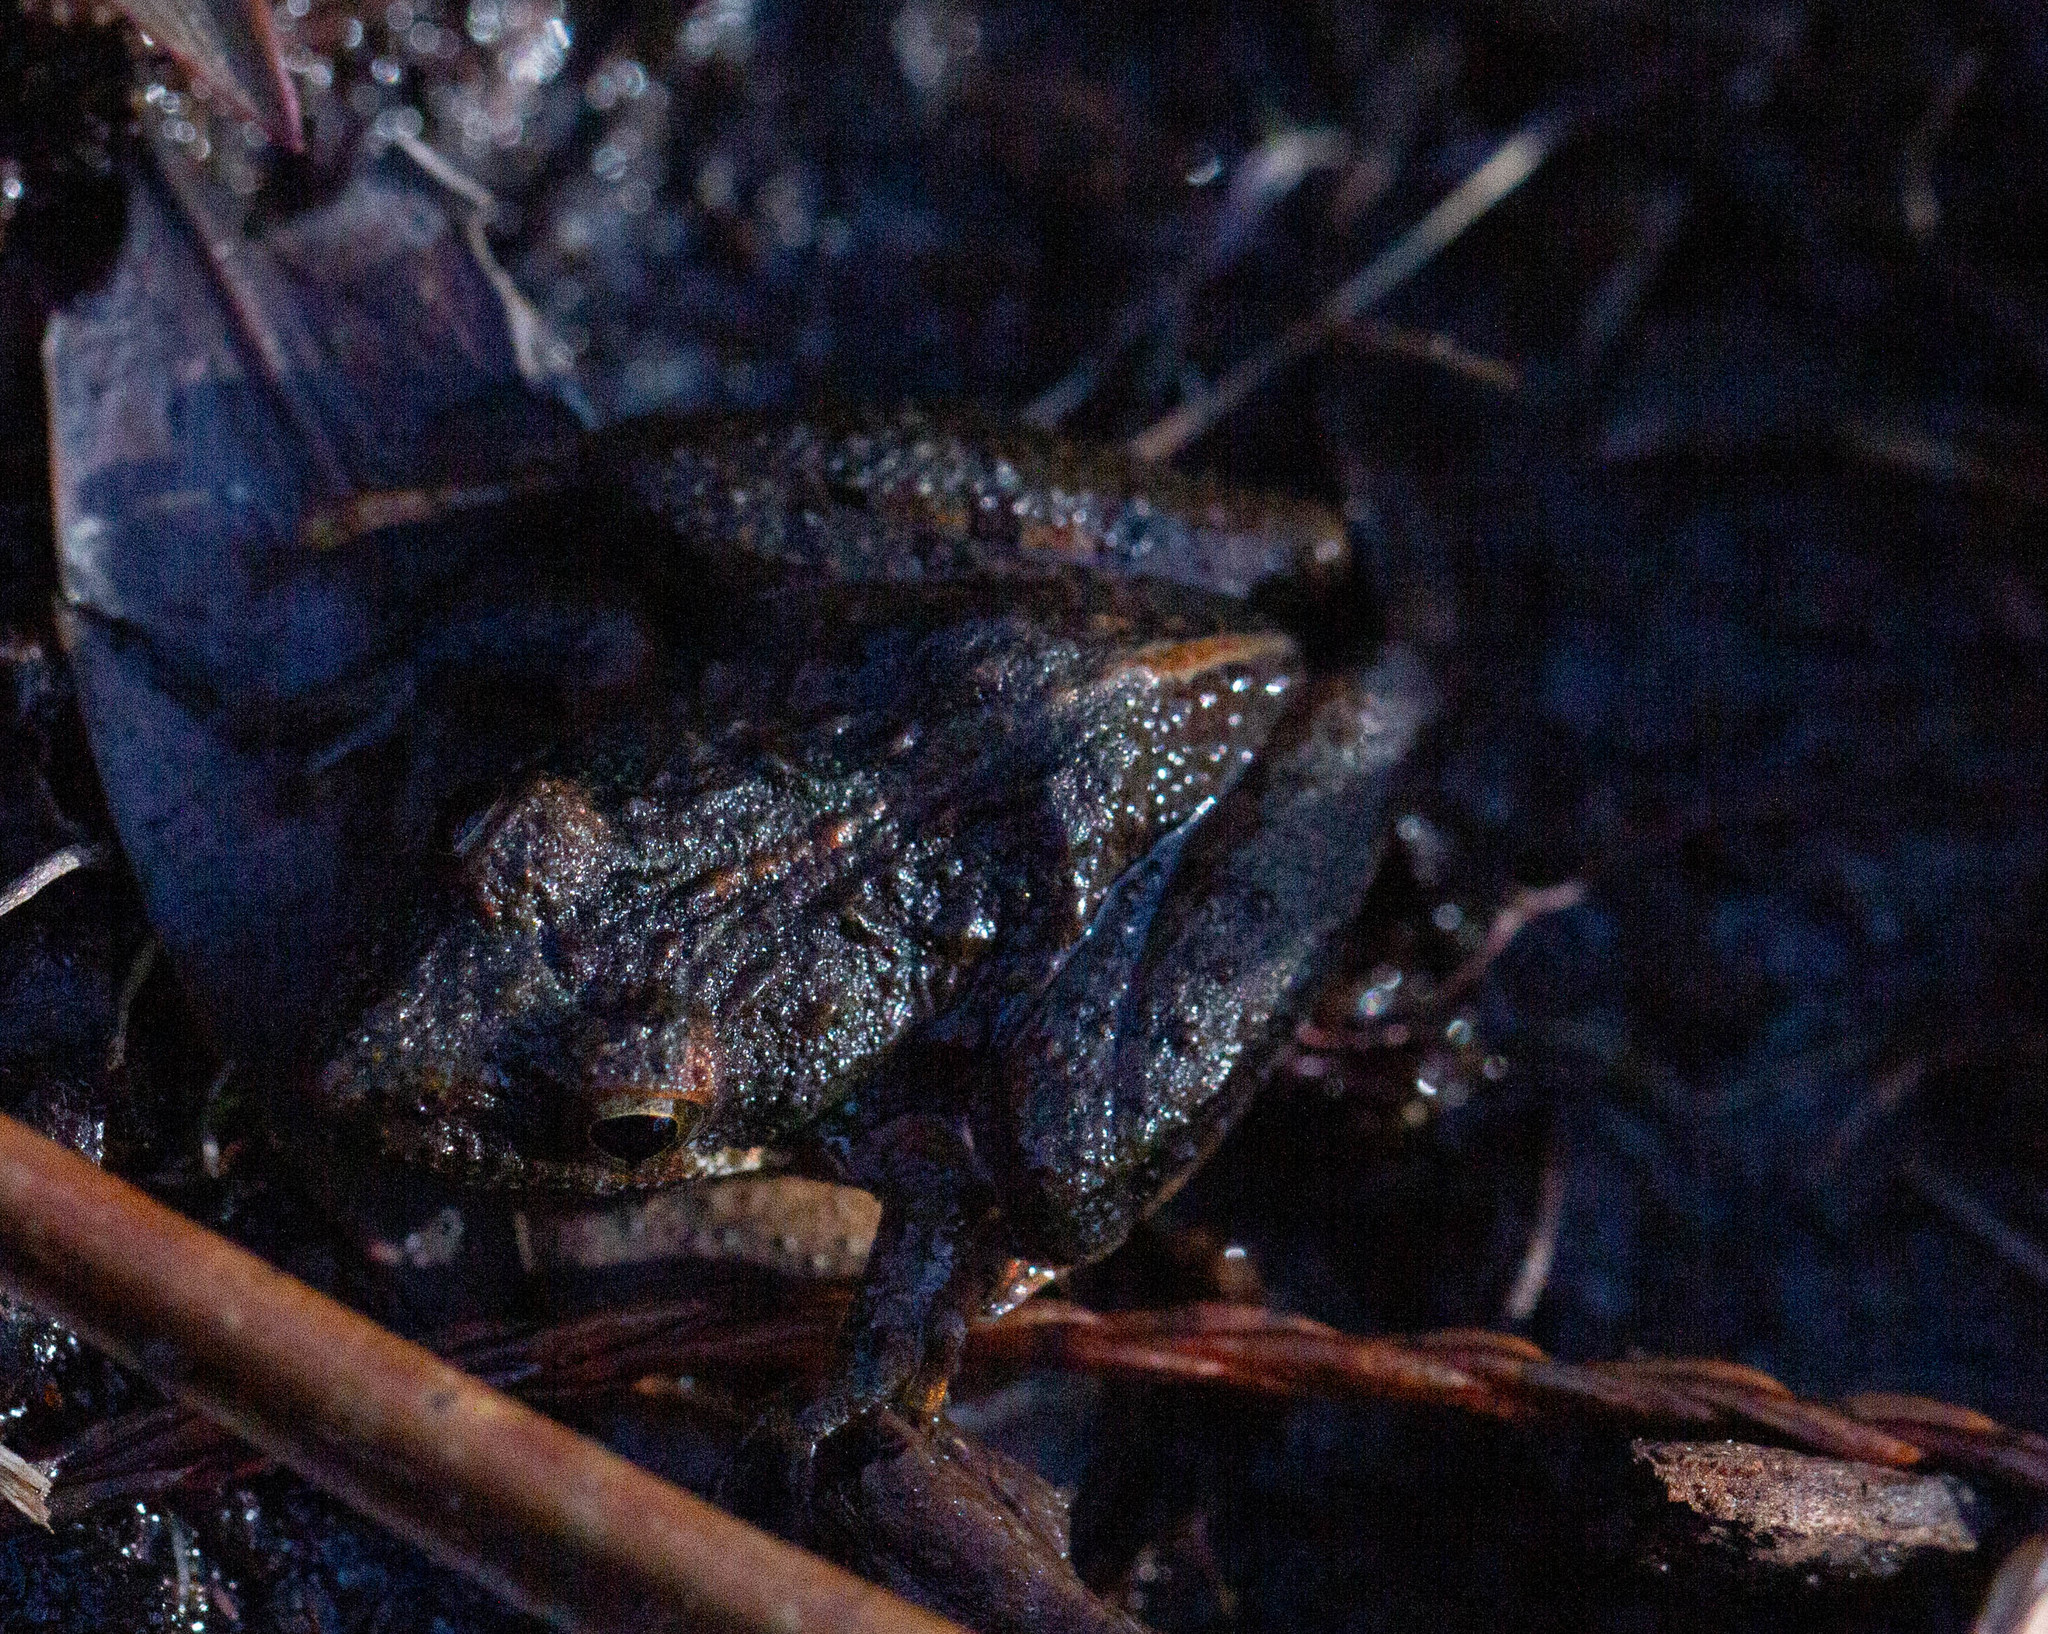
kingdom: Animalia
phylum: Chordata
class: Amphibia
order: Anura
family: Hylidae
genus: Acris
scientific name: Acris gryllus
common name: Southern cricket frog
